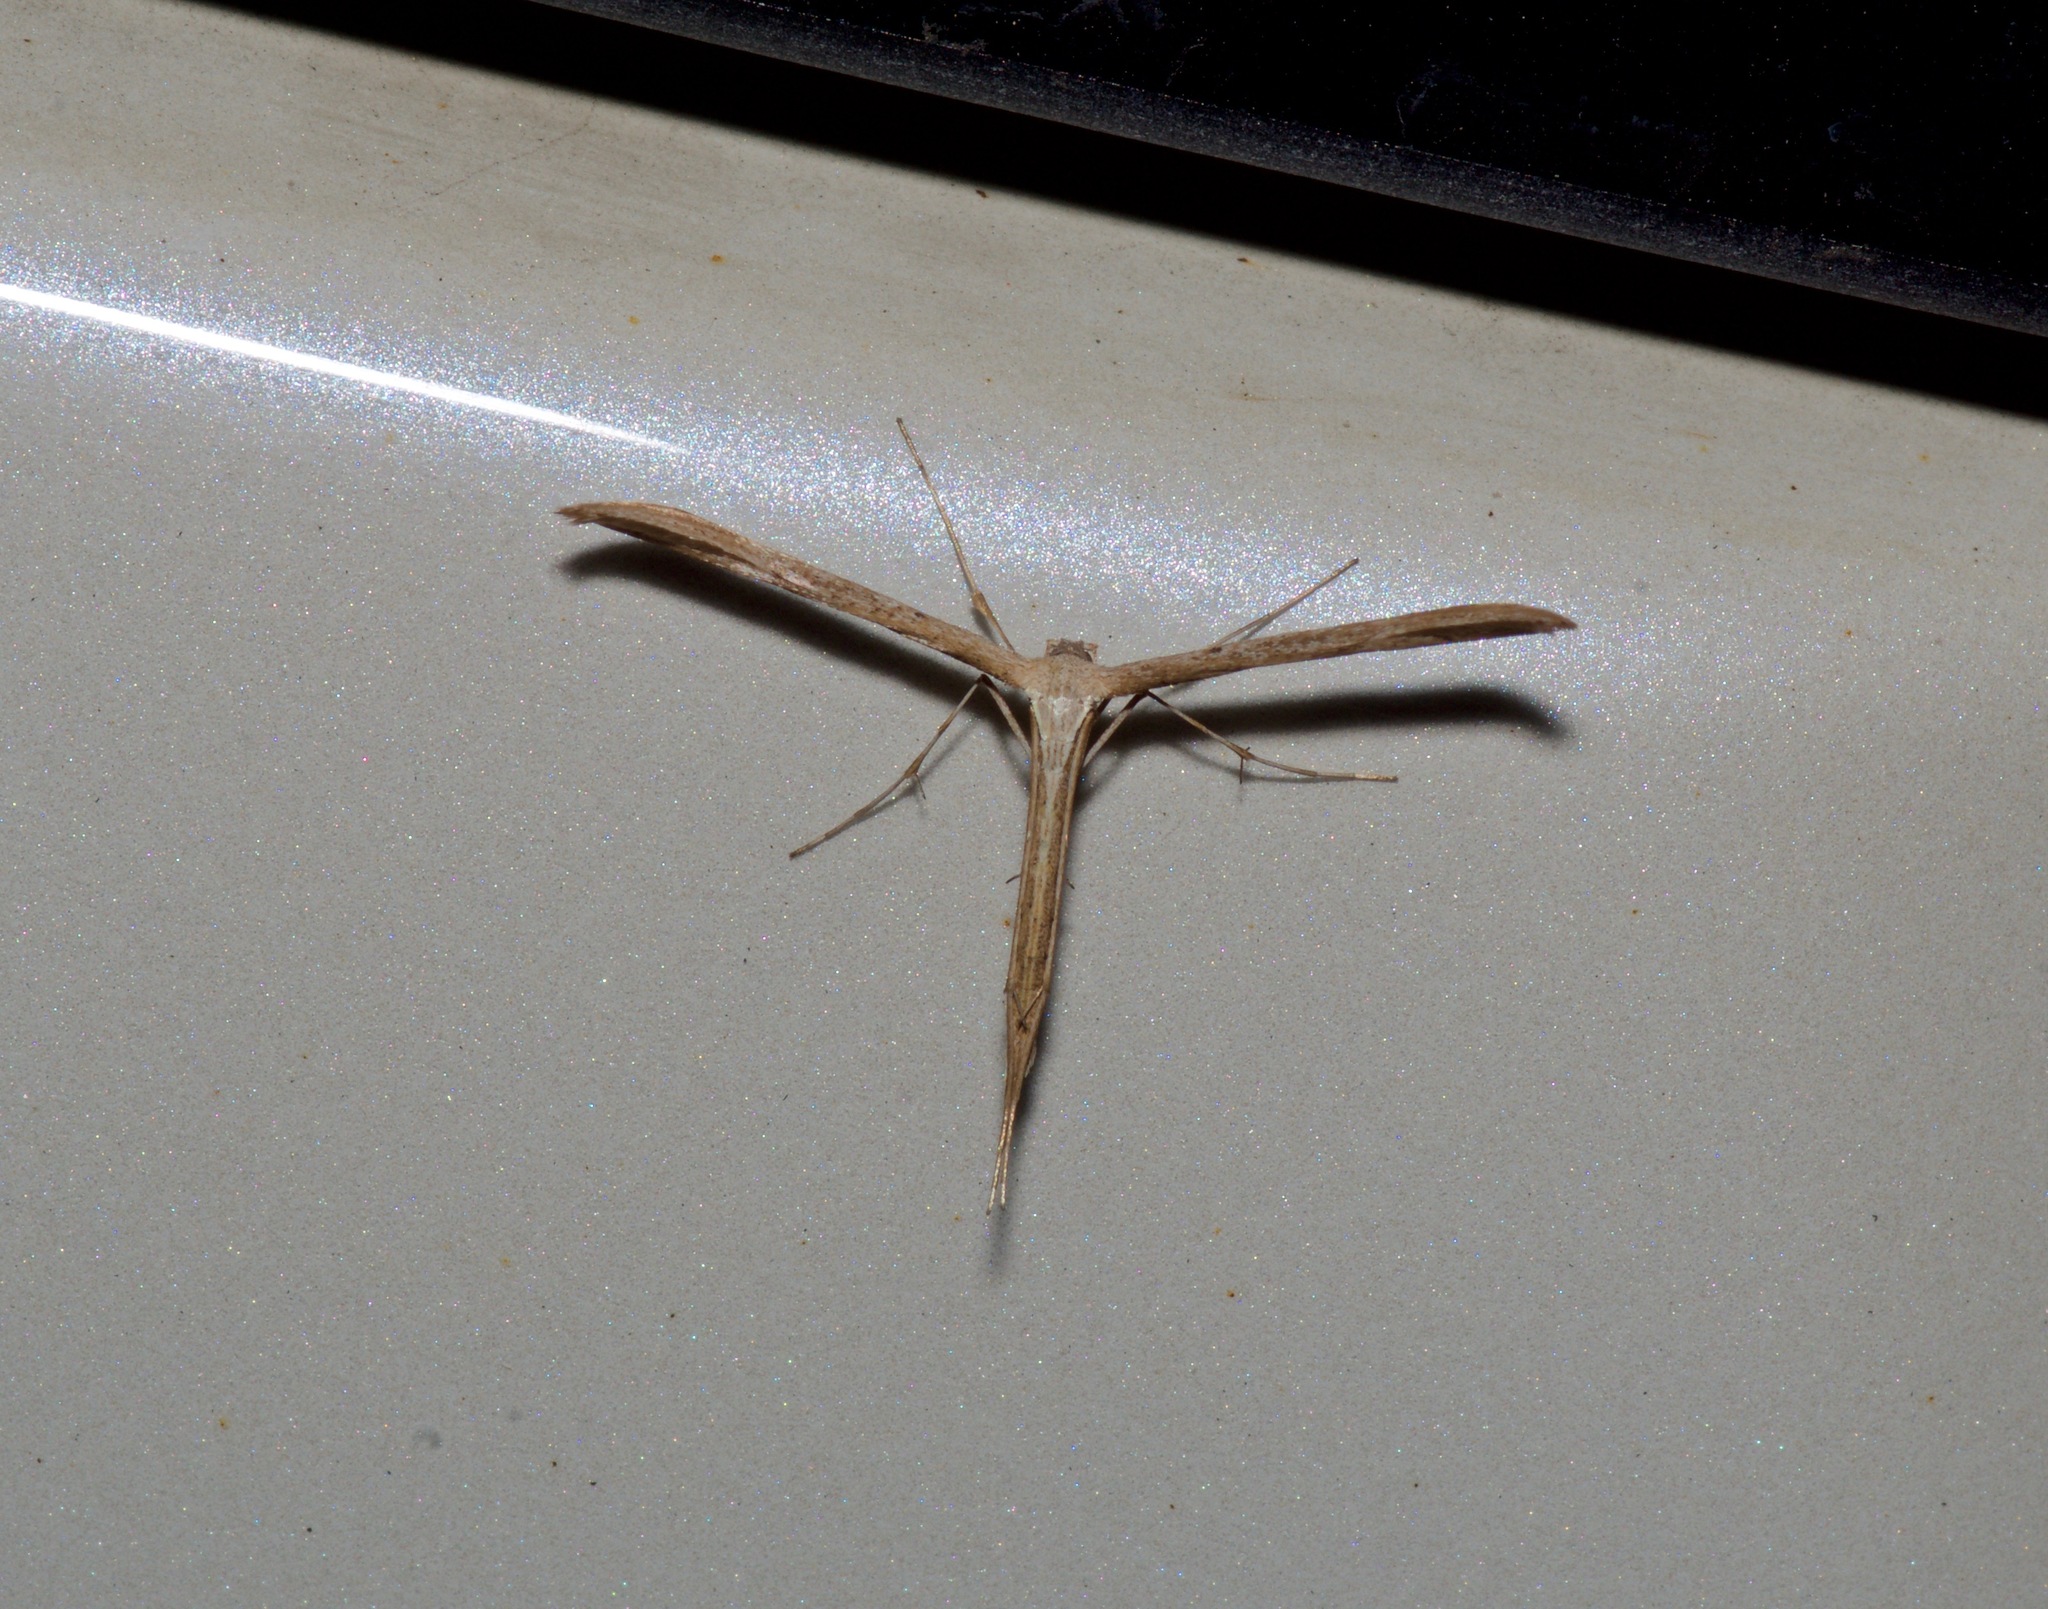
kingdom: Animalia
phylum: Arthropoda
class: Insecta
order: Lepidoptera
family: Pterophoridae
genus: Emmelina
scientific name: Emmelina monodactyla
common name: Common plume
